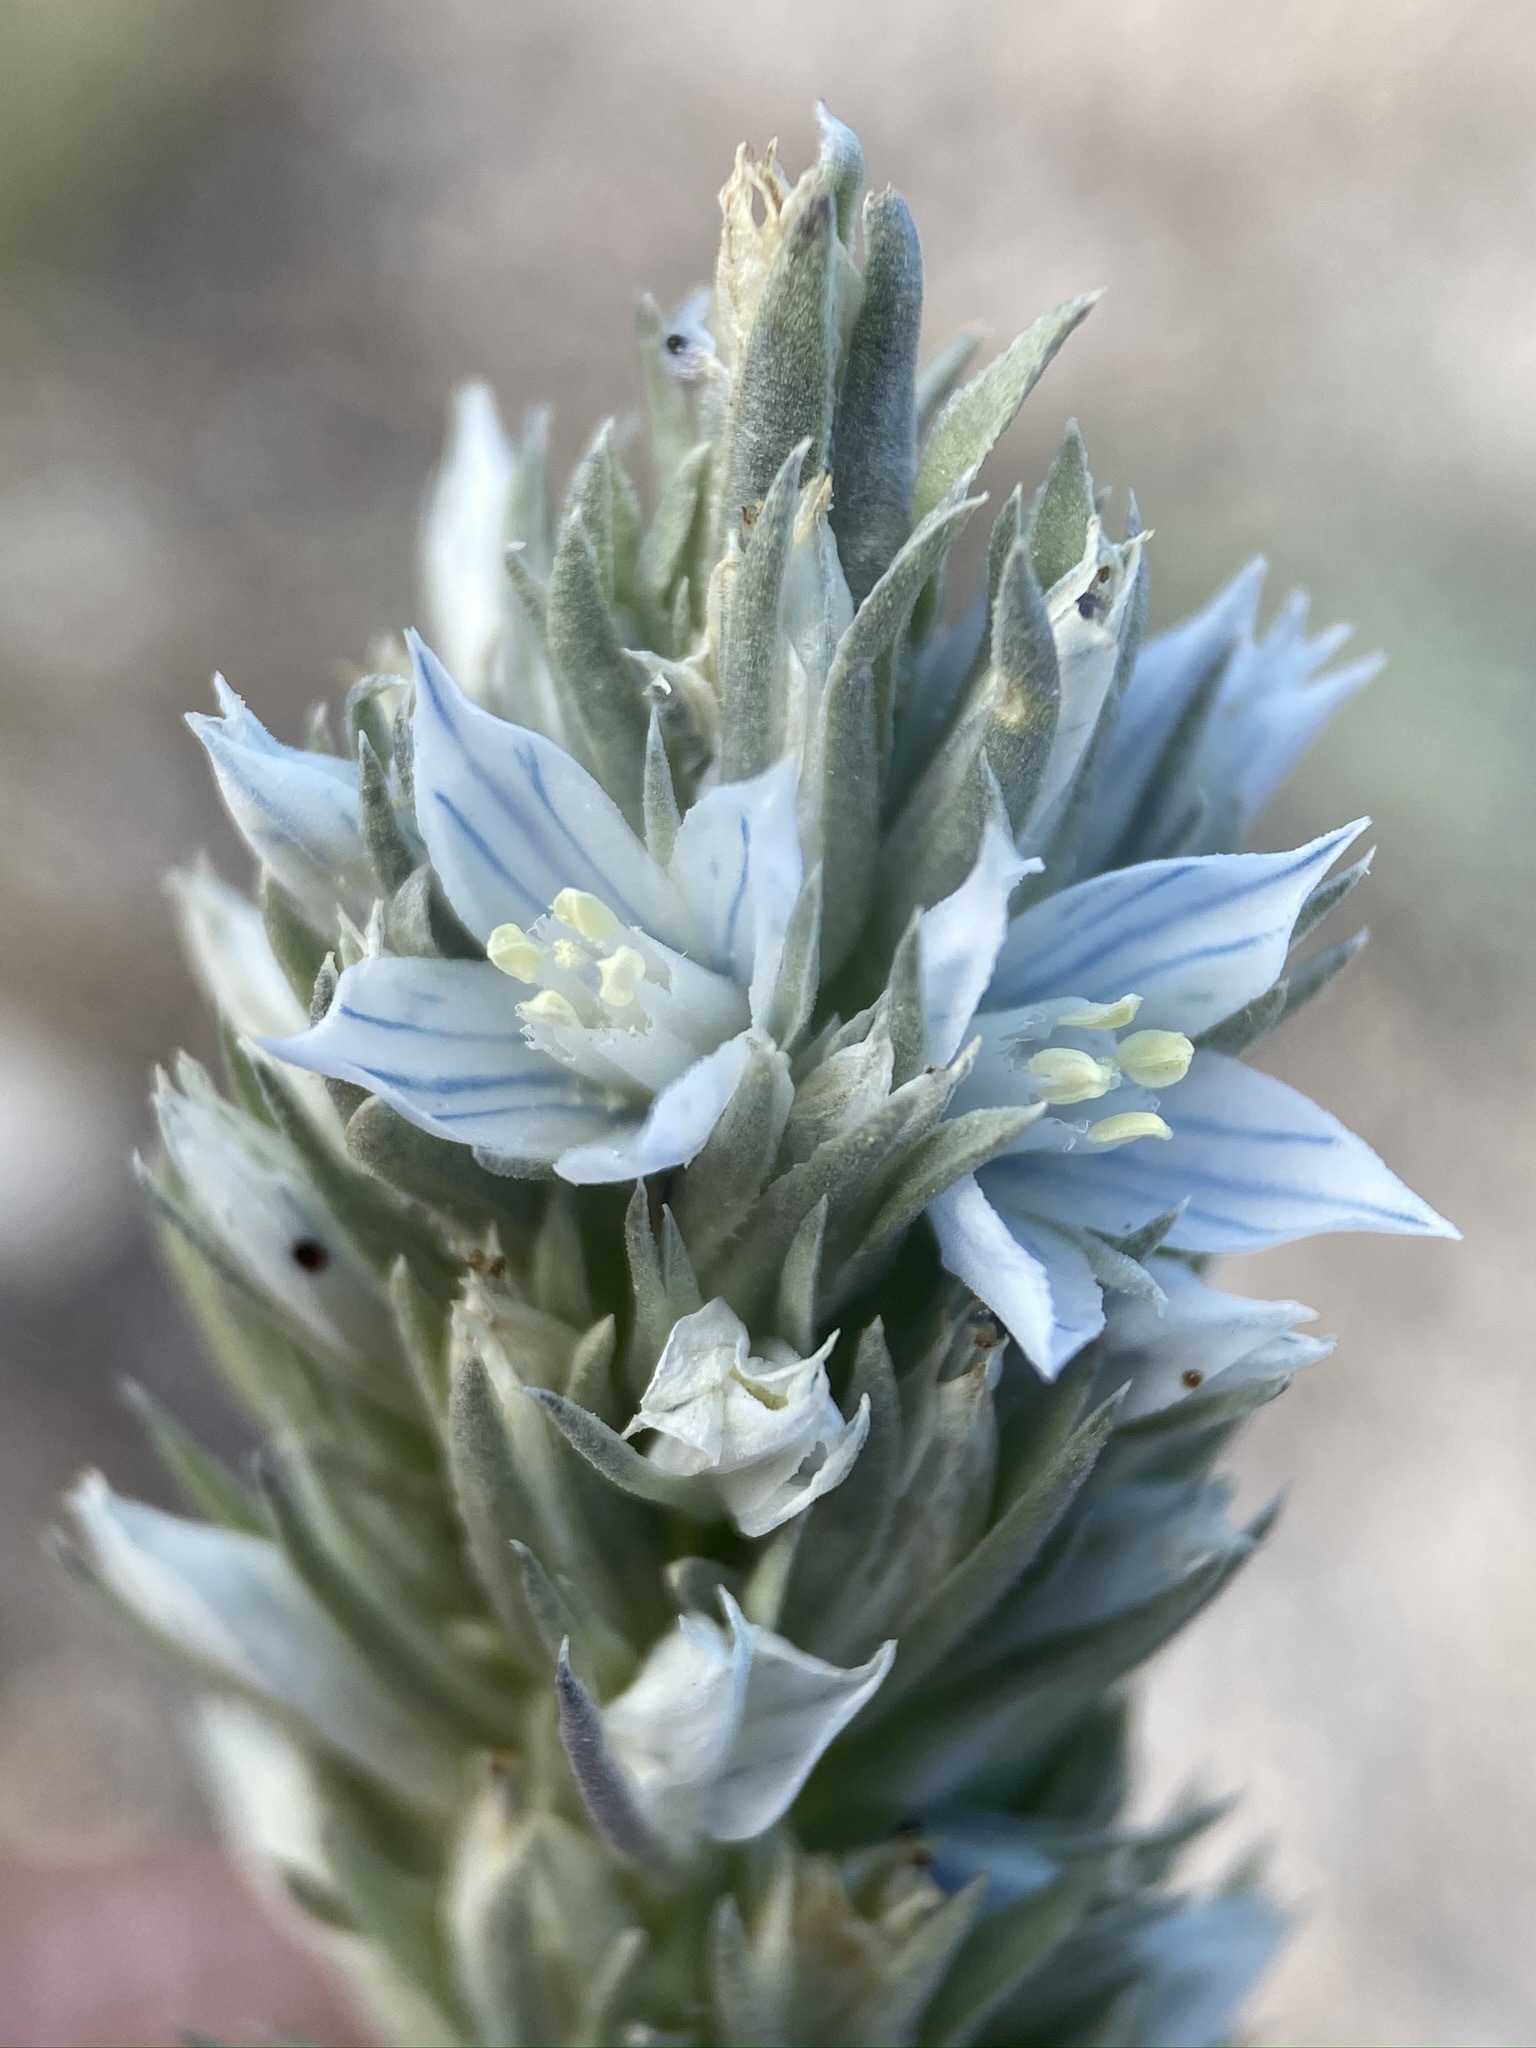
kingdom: Plantae
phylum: Tracheophyta
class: Magnoliopsida
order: Gentianales
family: Gentianaceae
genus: Frasera
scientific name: Frasera tubulosa
